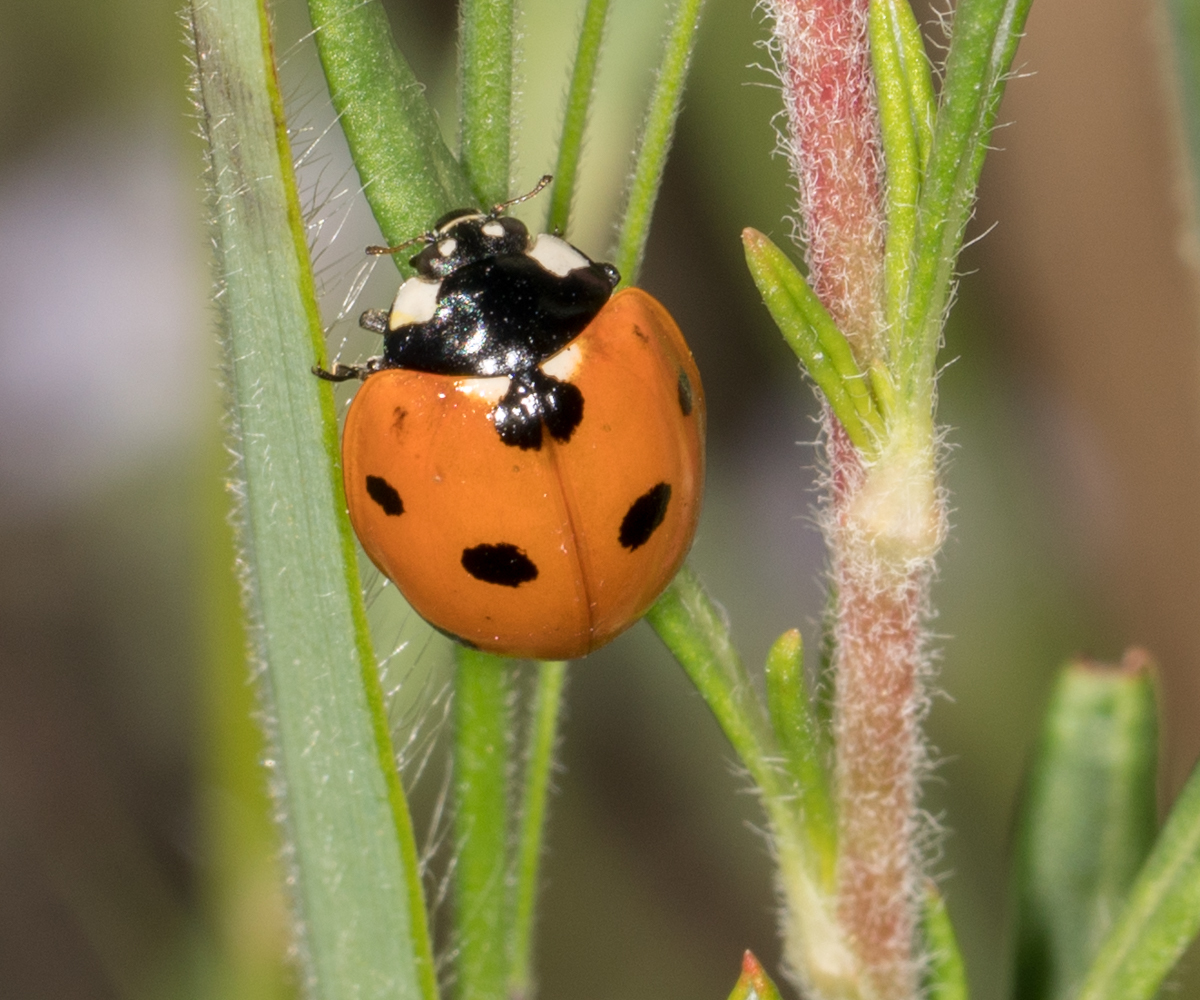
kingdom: Animalia
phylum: Arthropoda
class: Insecta
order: Coleoptera
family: Coccinellidae
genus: Coccinella
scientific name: Coccinella septempunctata
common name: Sevenspotted lady beetle
